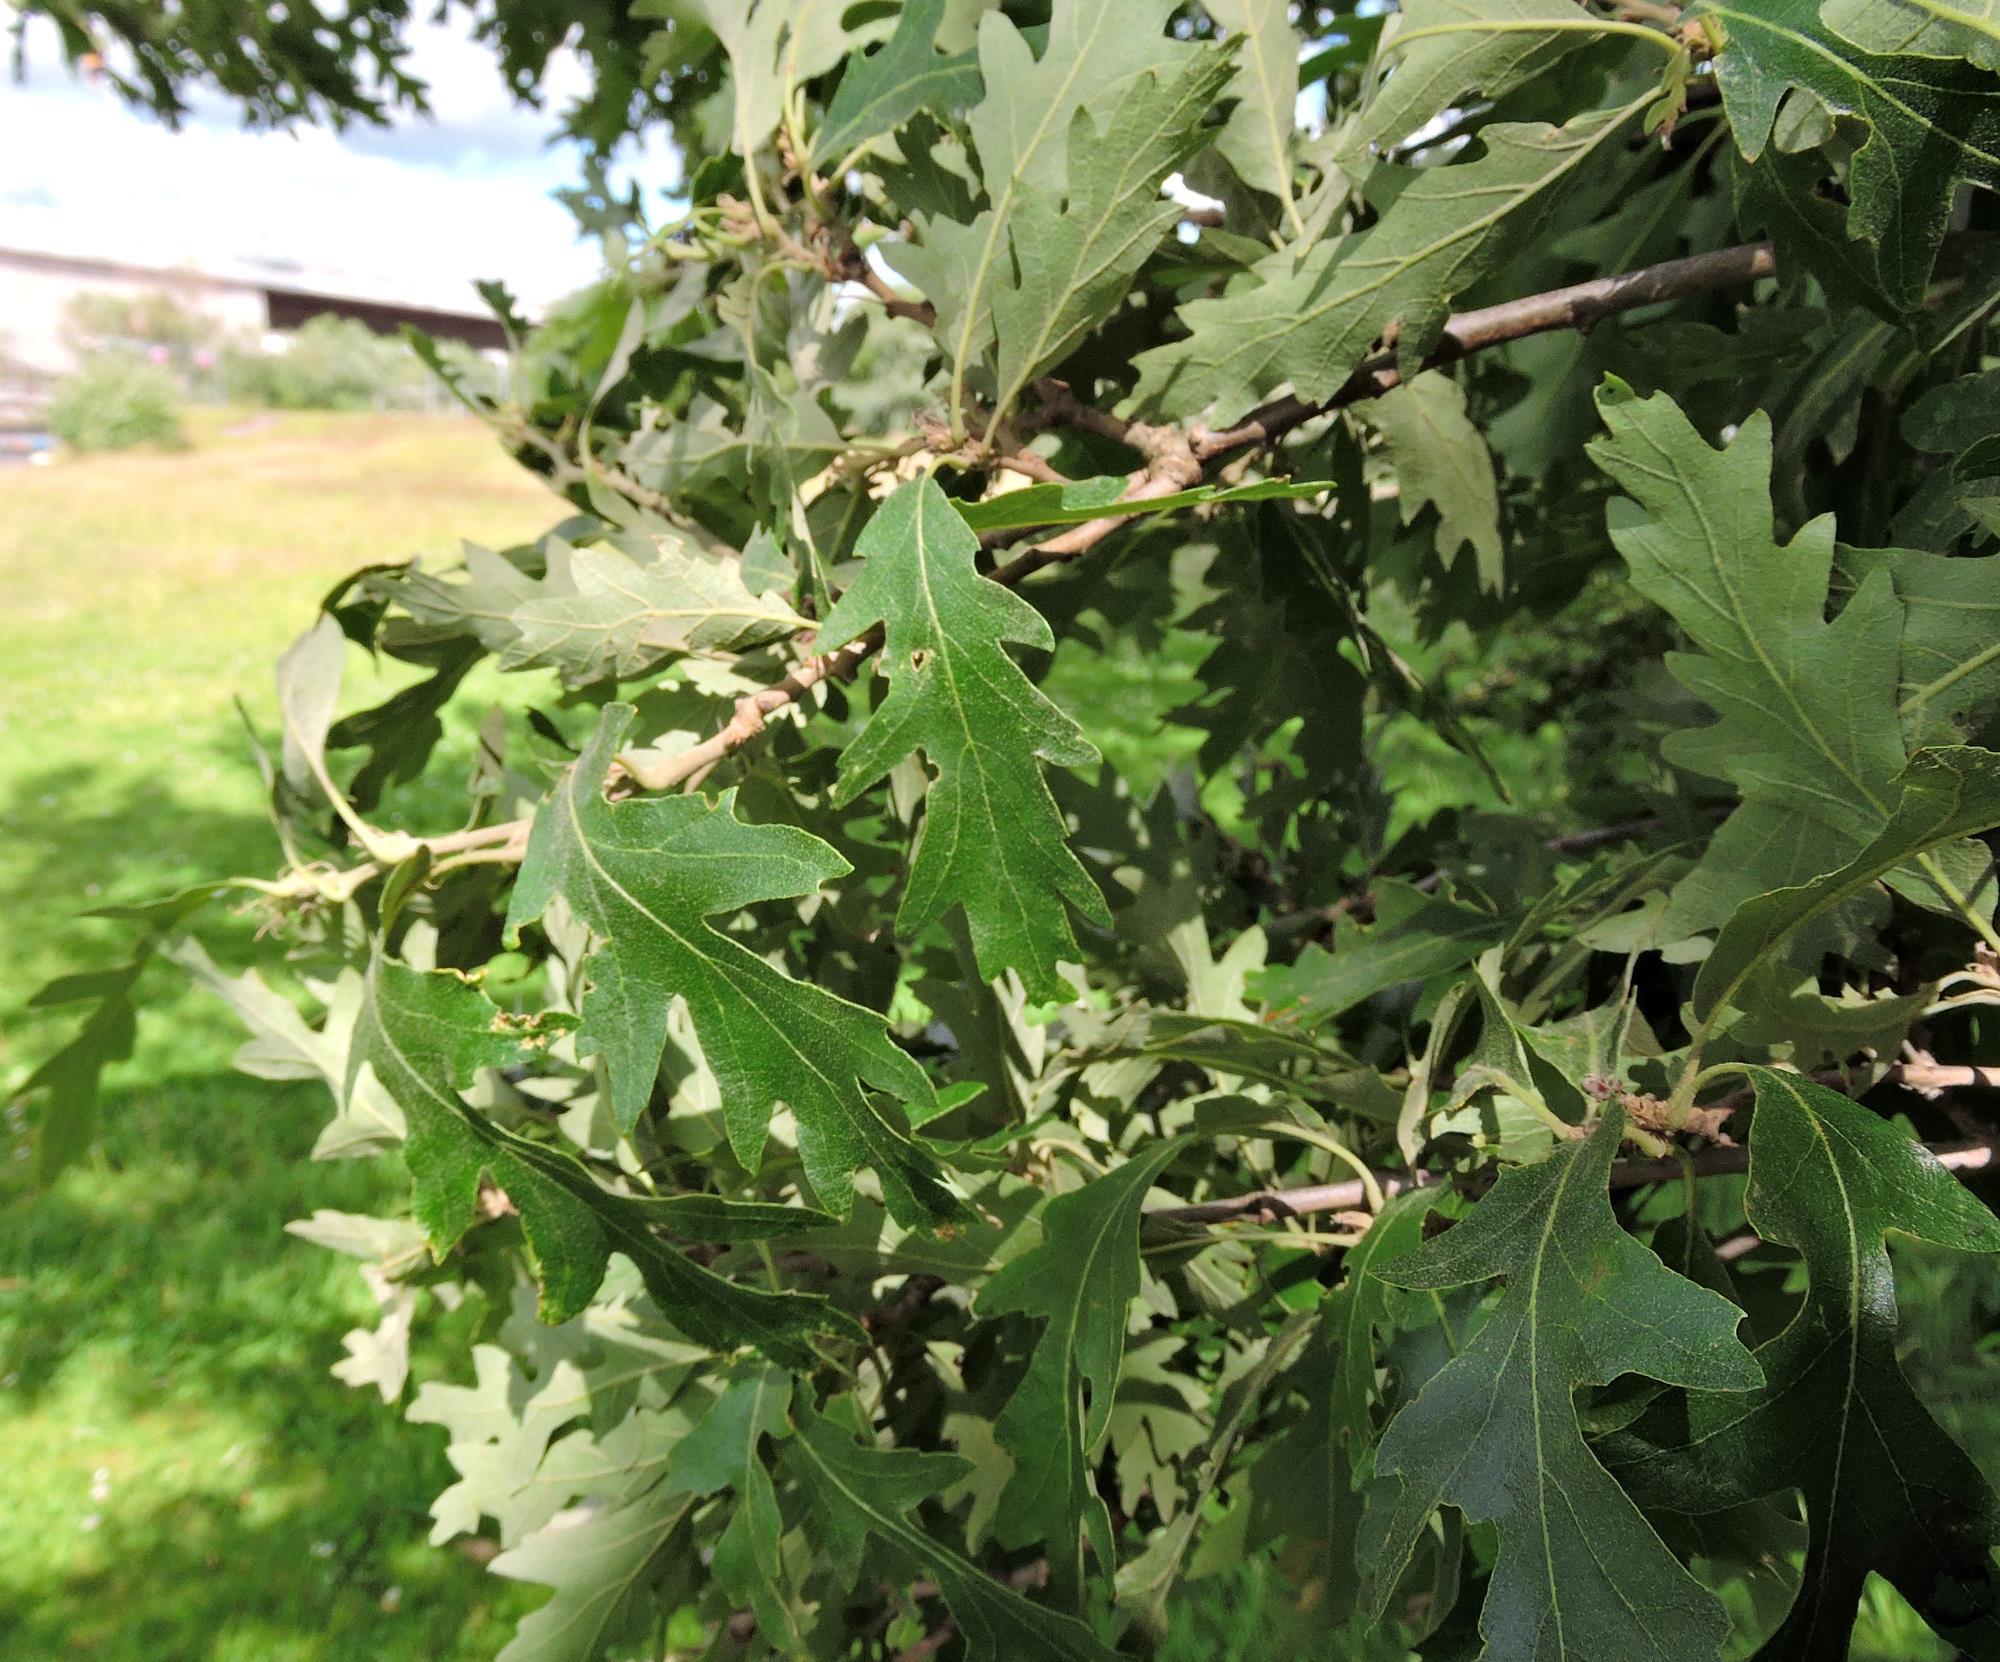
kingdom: Plantae
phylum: Tracheophyta
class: Magnoliopsida
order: Fagales
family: Fagaceae
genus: Quercus
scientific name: Quercus cerris
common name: Turkey oak
